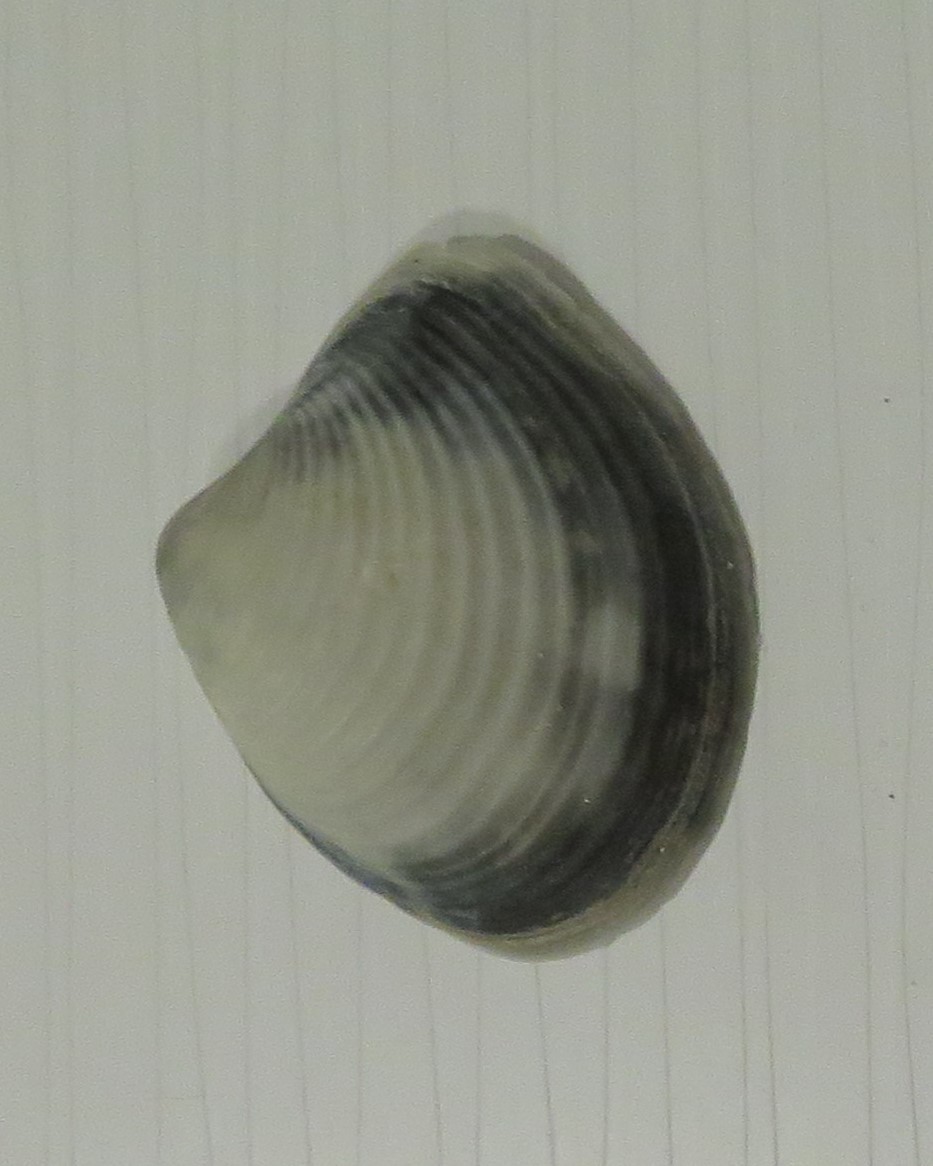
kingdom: Animalia
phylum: Mollusca
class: Bivalvia
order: Venerida
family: Anatinellidae
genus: Raeta
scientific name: Raeta plicatella
